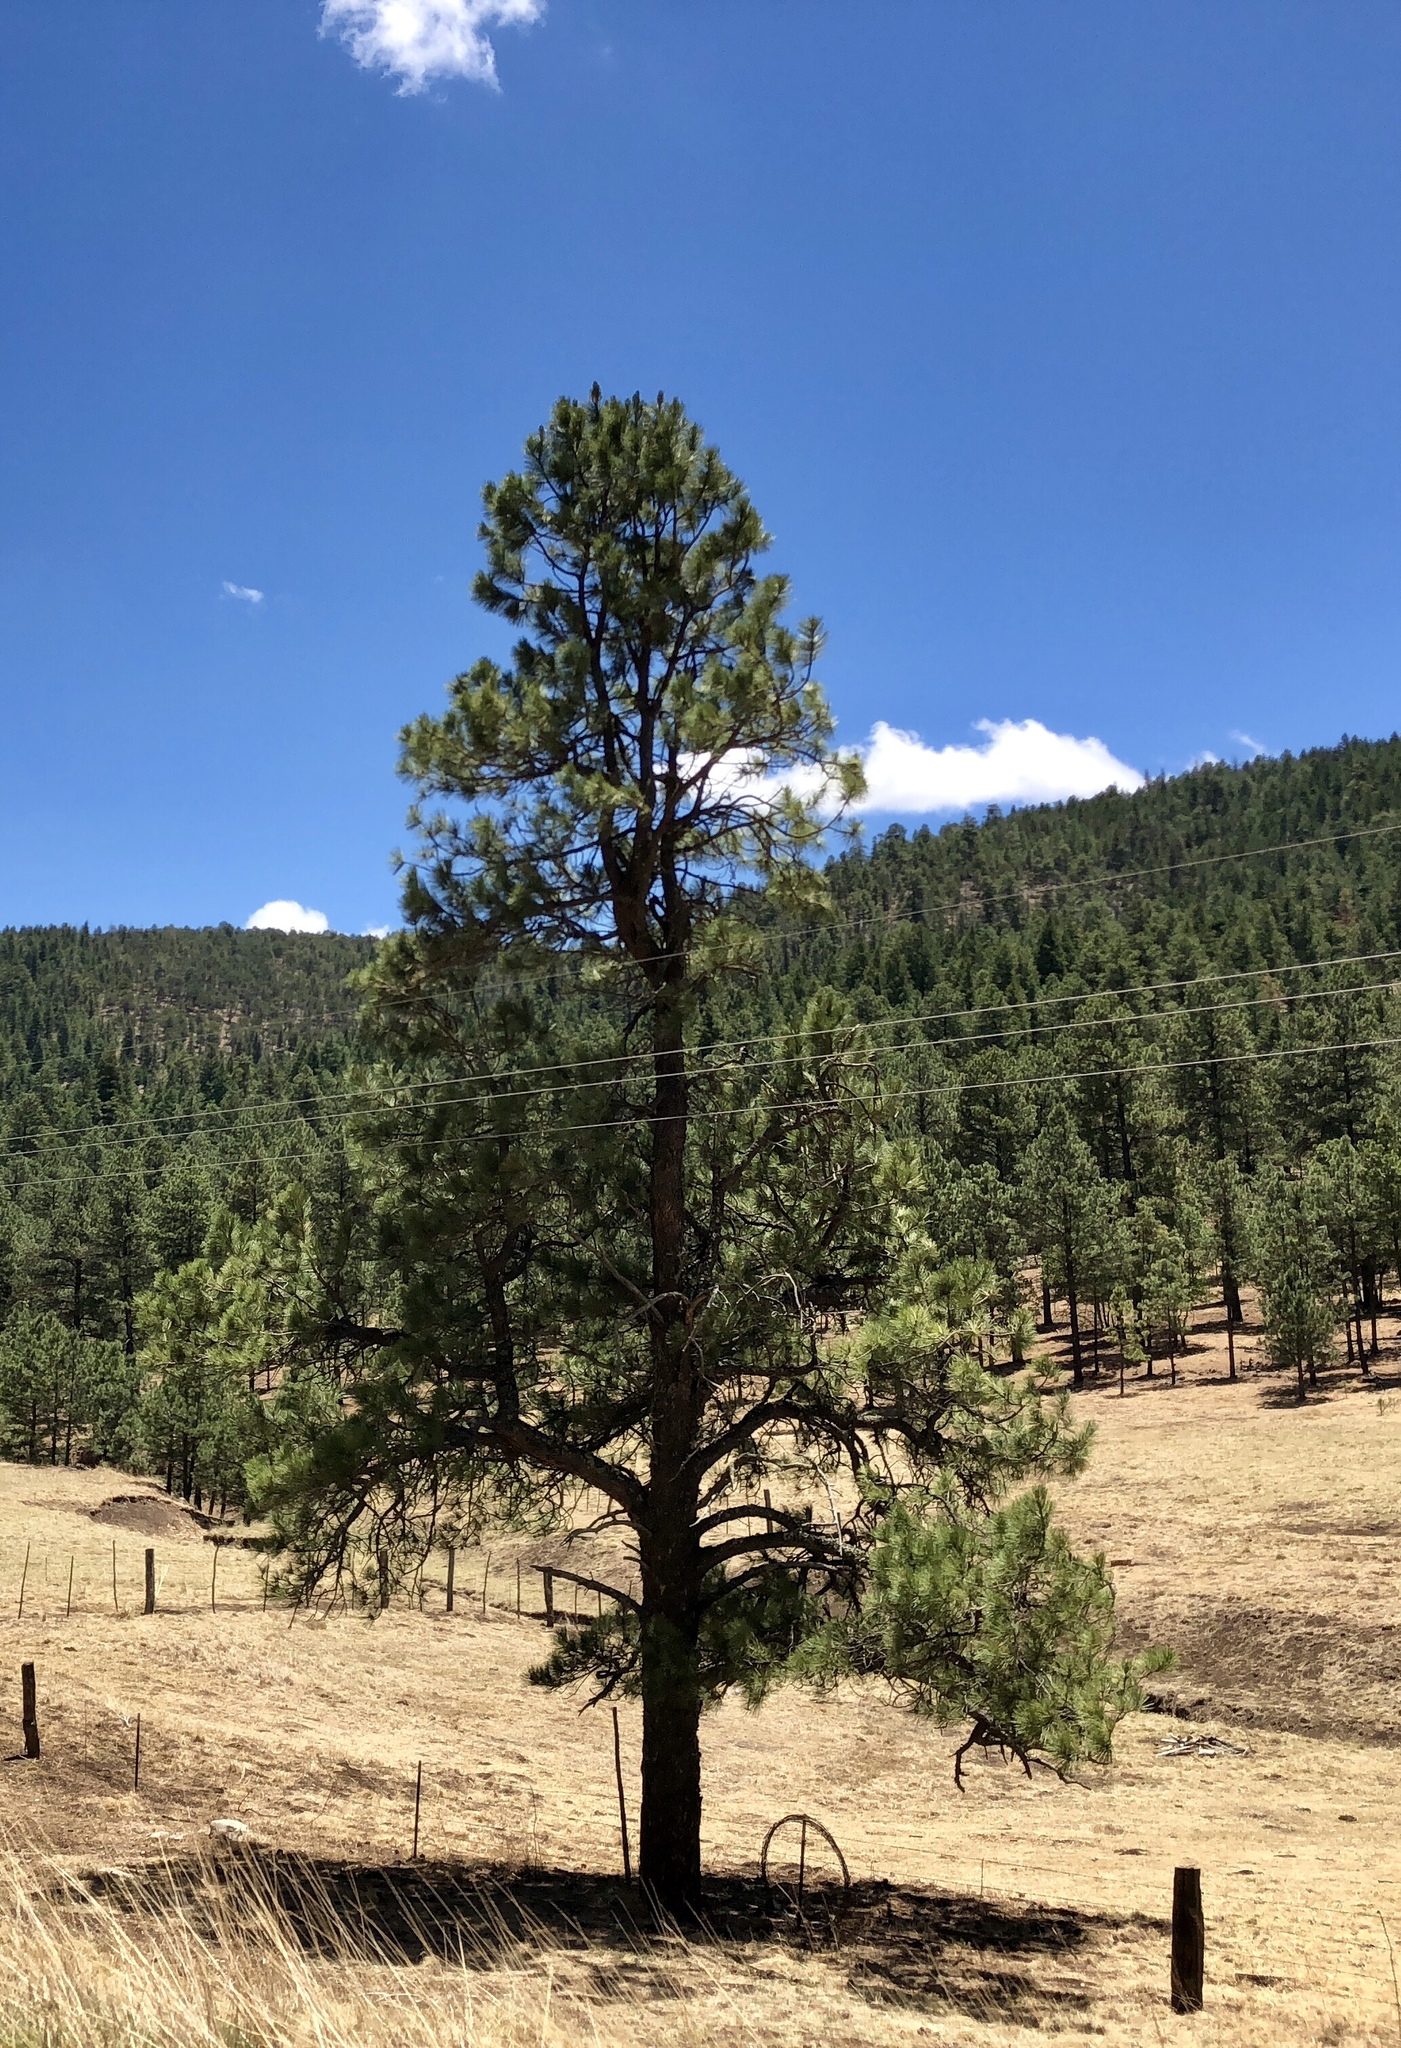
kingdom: Plantae
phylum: Tracheophyta
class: Pinopsida
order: Pinales
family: Pinaceae
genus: Pinus
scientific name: Pinus ponderosa
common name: Western yellow-pine
